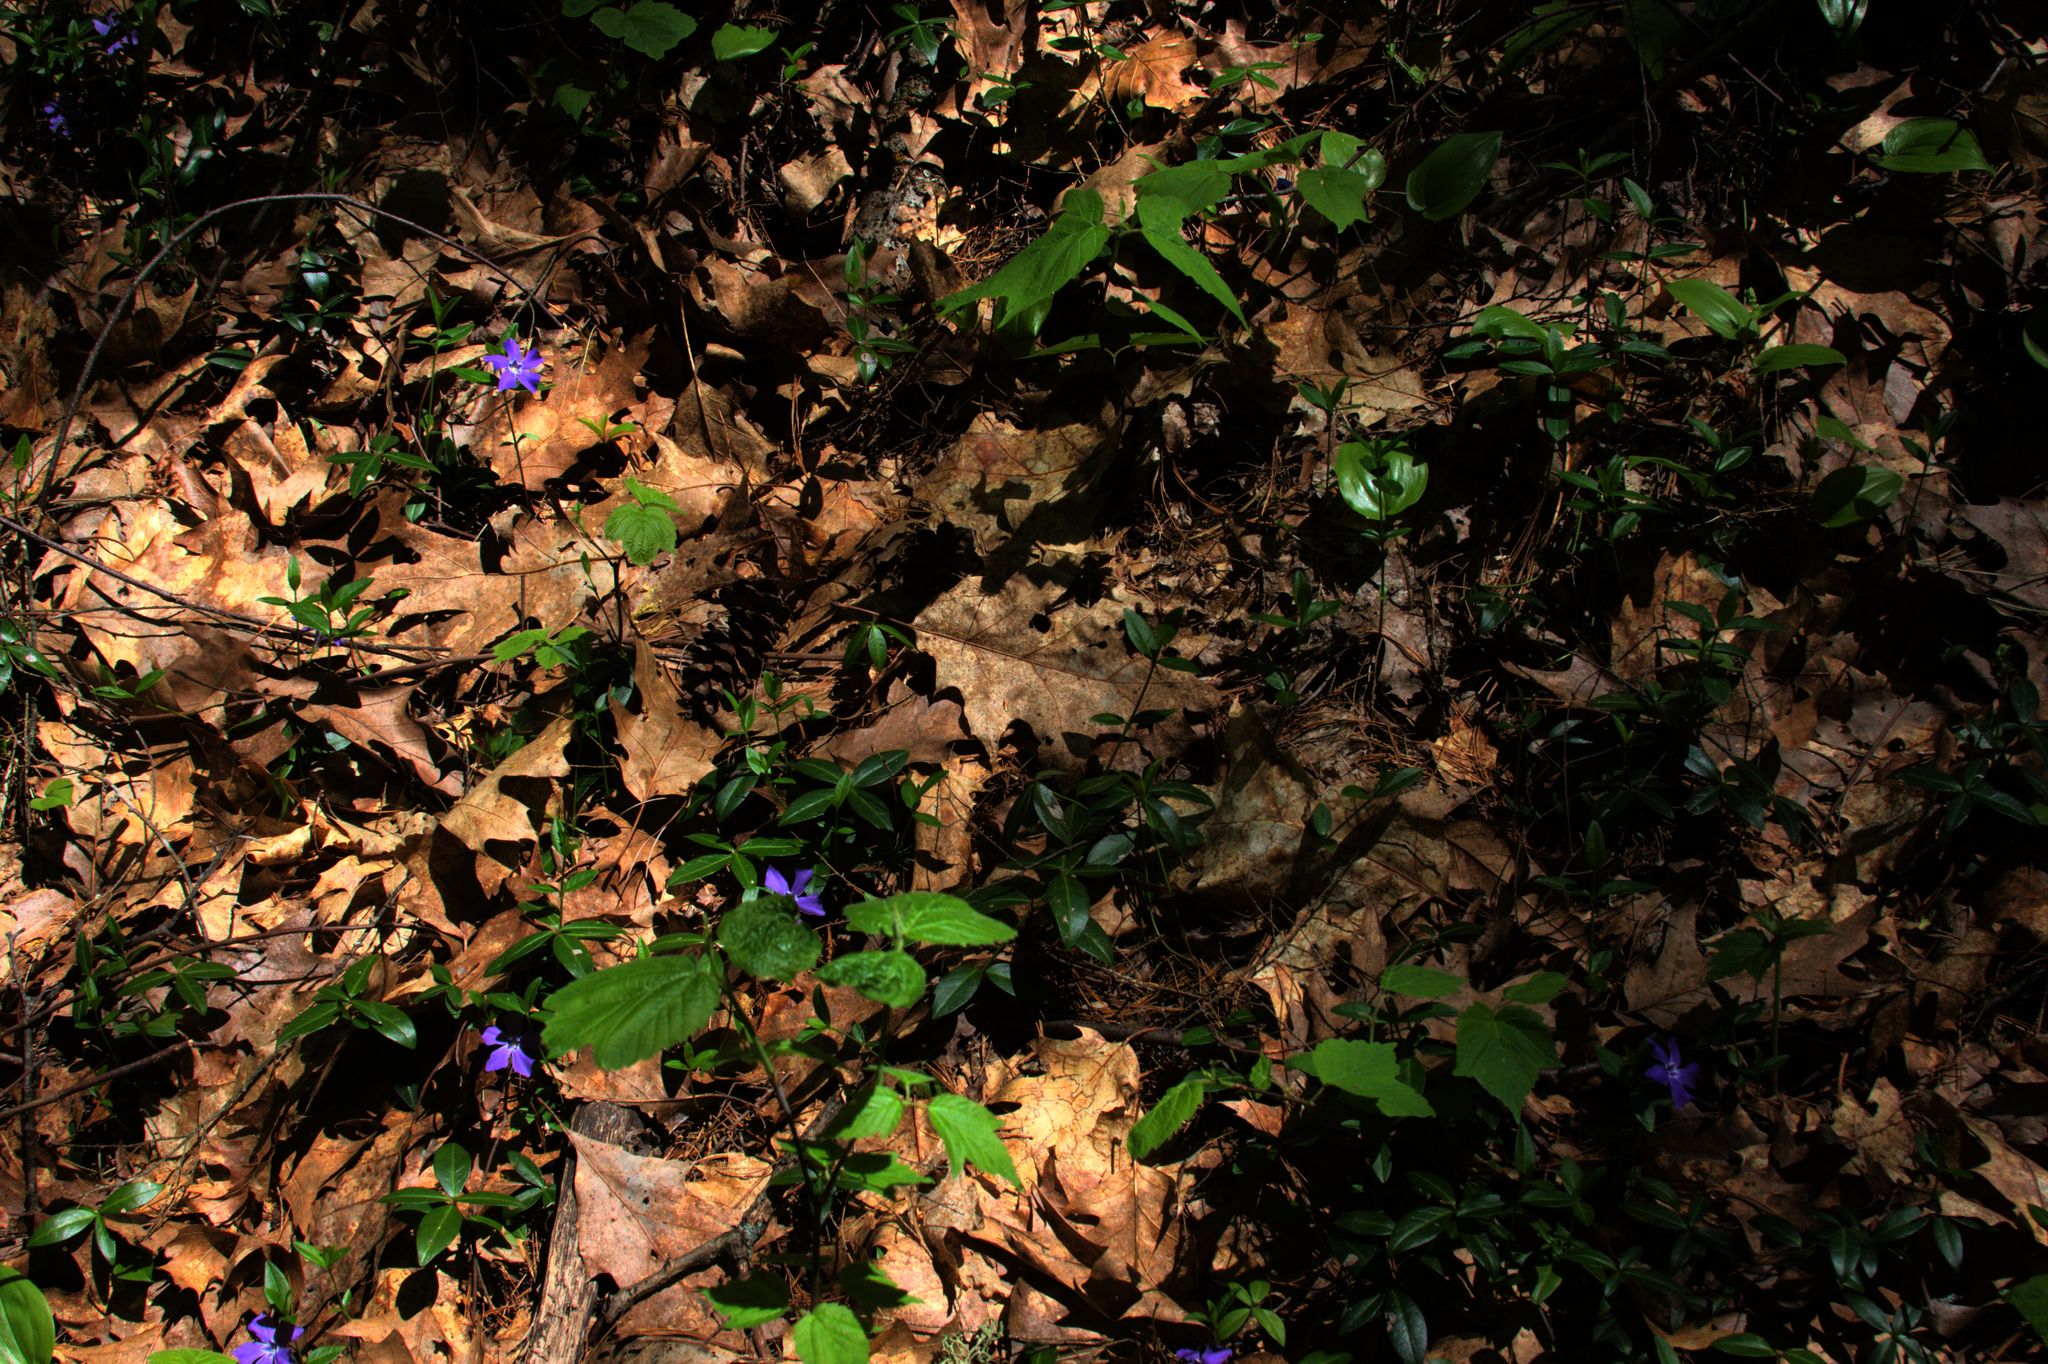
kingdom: Plantae
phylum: Tracheophyta
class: Liliopsida
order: Asparagales
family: Asparagaceae
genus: Maianthemum
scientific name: Maianthemum canadense
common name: False lily-of-the-valley
